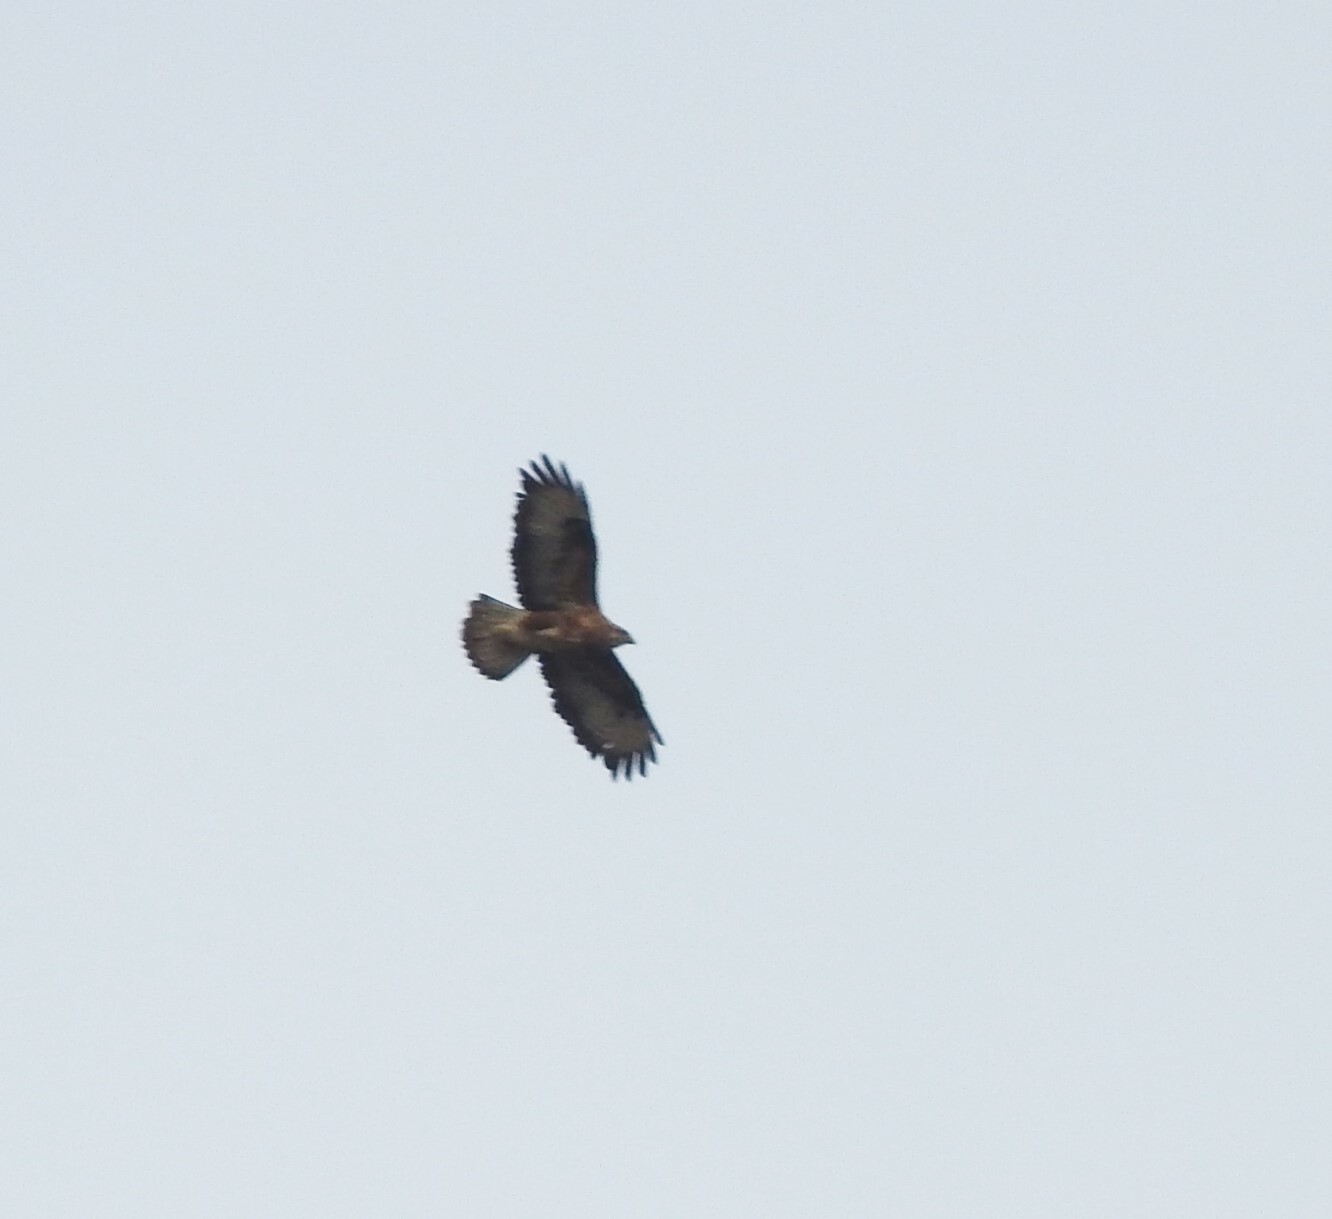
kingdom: Animalia
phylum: Chordata
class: Aves
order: Accipitriformes
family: Accipitridae
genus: Buteo
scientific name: Buteo buteo
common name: Common buzzard
